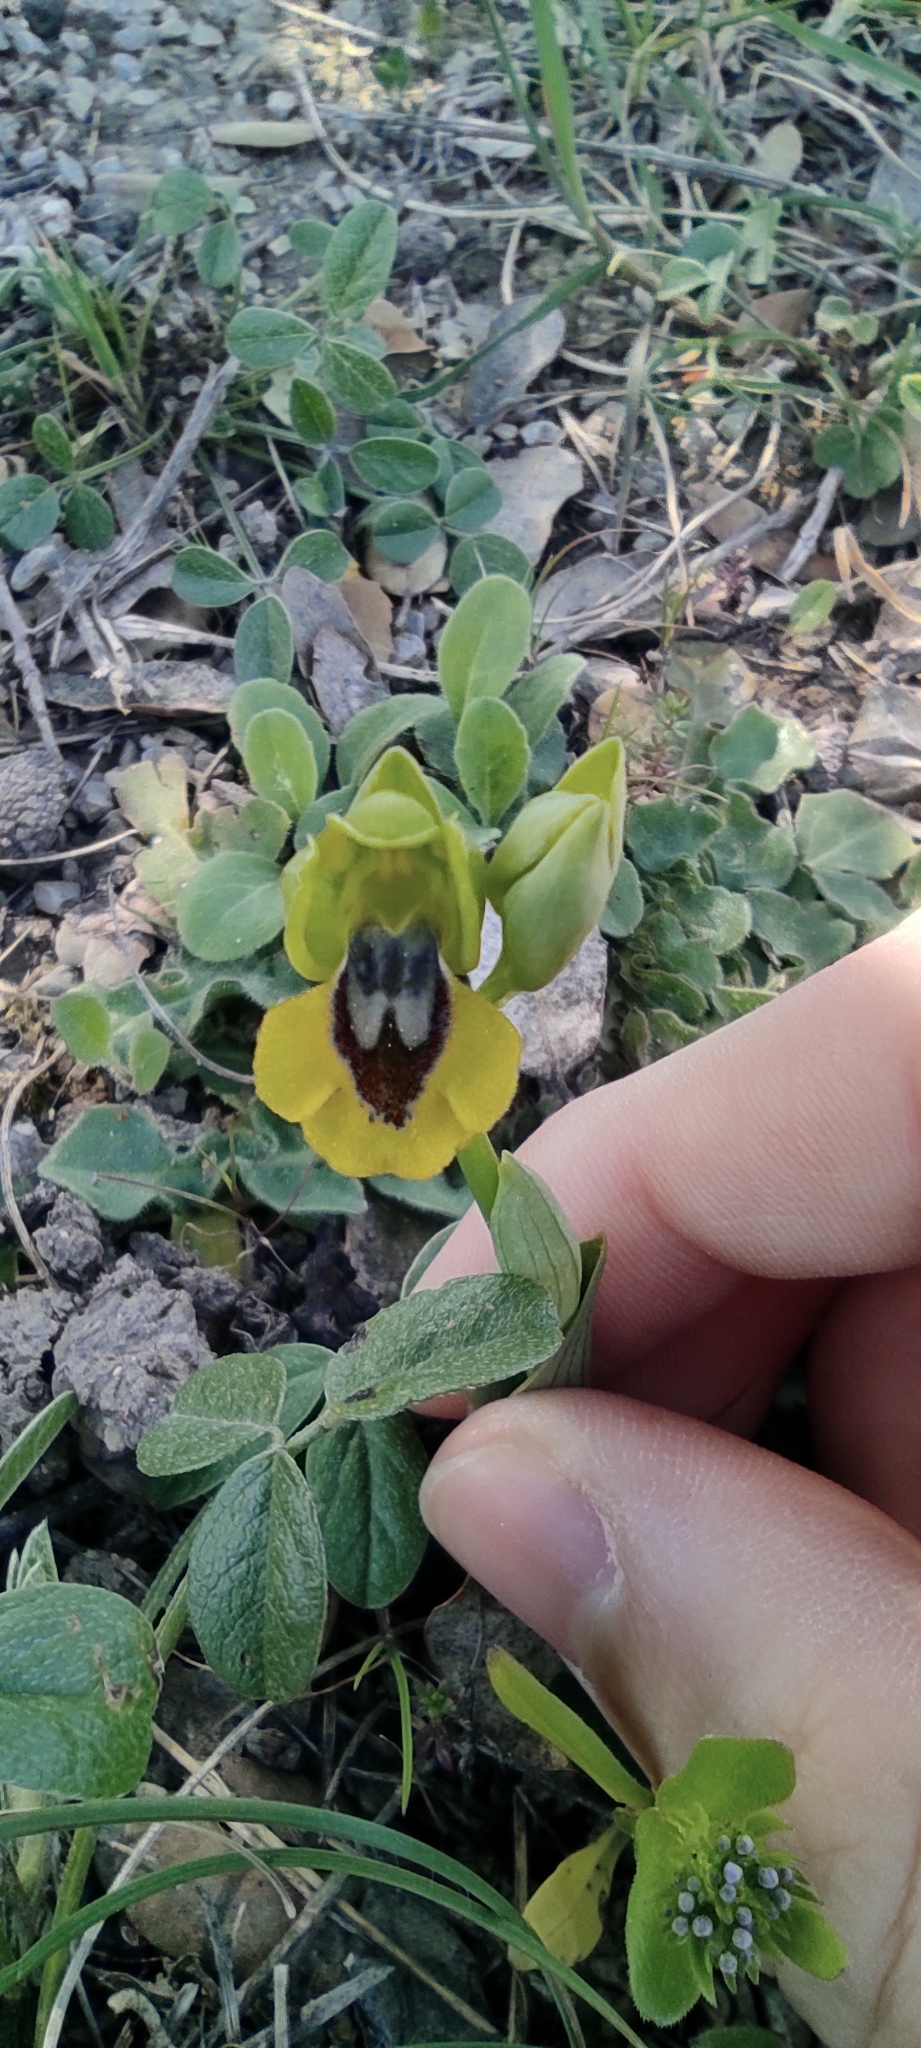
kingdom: Plantae
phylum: Tracheophyta
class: Liliopsida
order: Asparagales
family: Orchidaceae
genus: Ophrys
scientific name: Ophrys lutea
